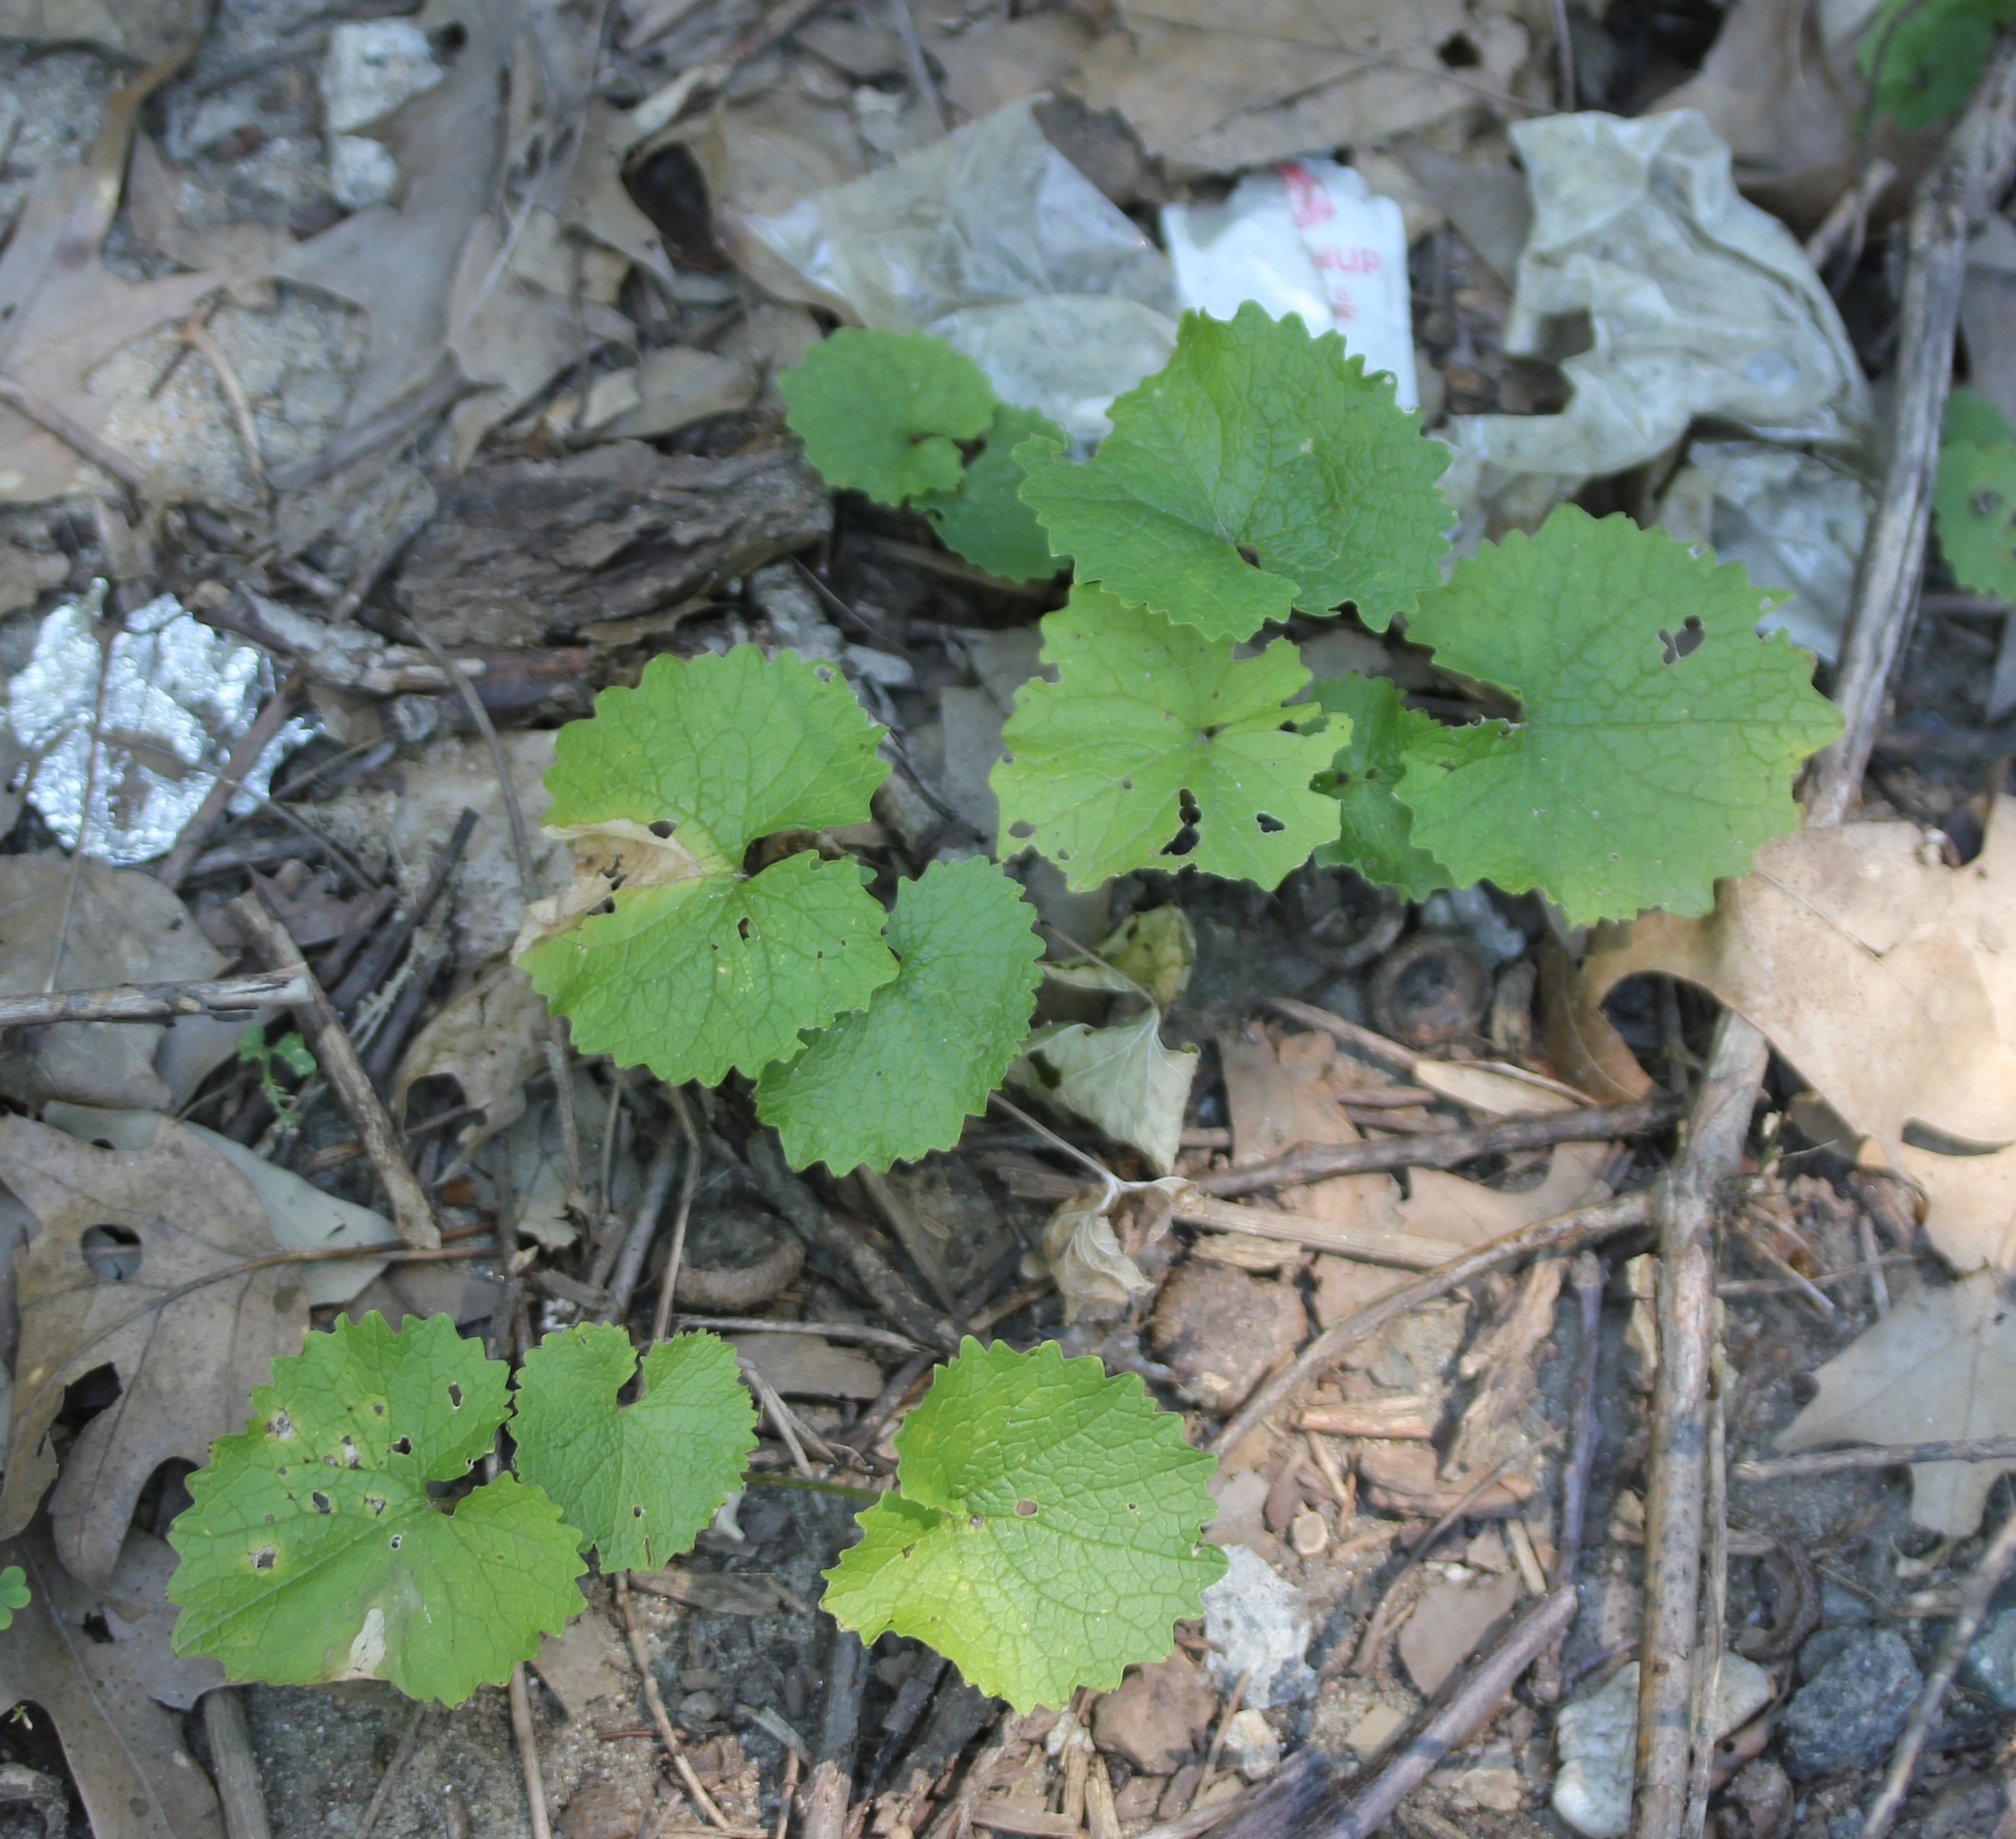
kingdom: Plantae
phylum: Tracheophyta
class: Magnoliopsida
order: Brassicales
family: Brassicaceae
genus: Alliaria
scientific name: Alliaria petiolata
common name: Garlic mustard
